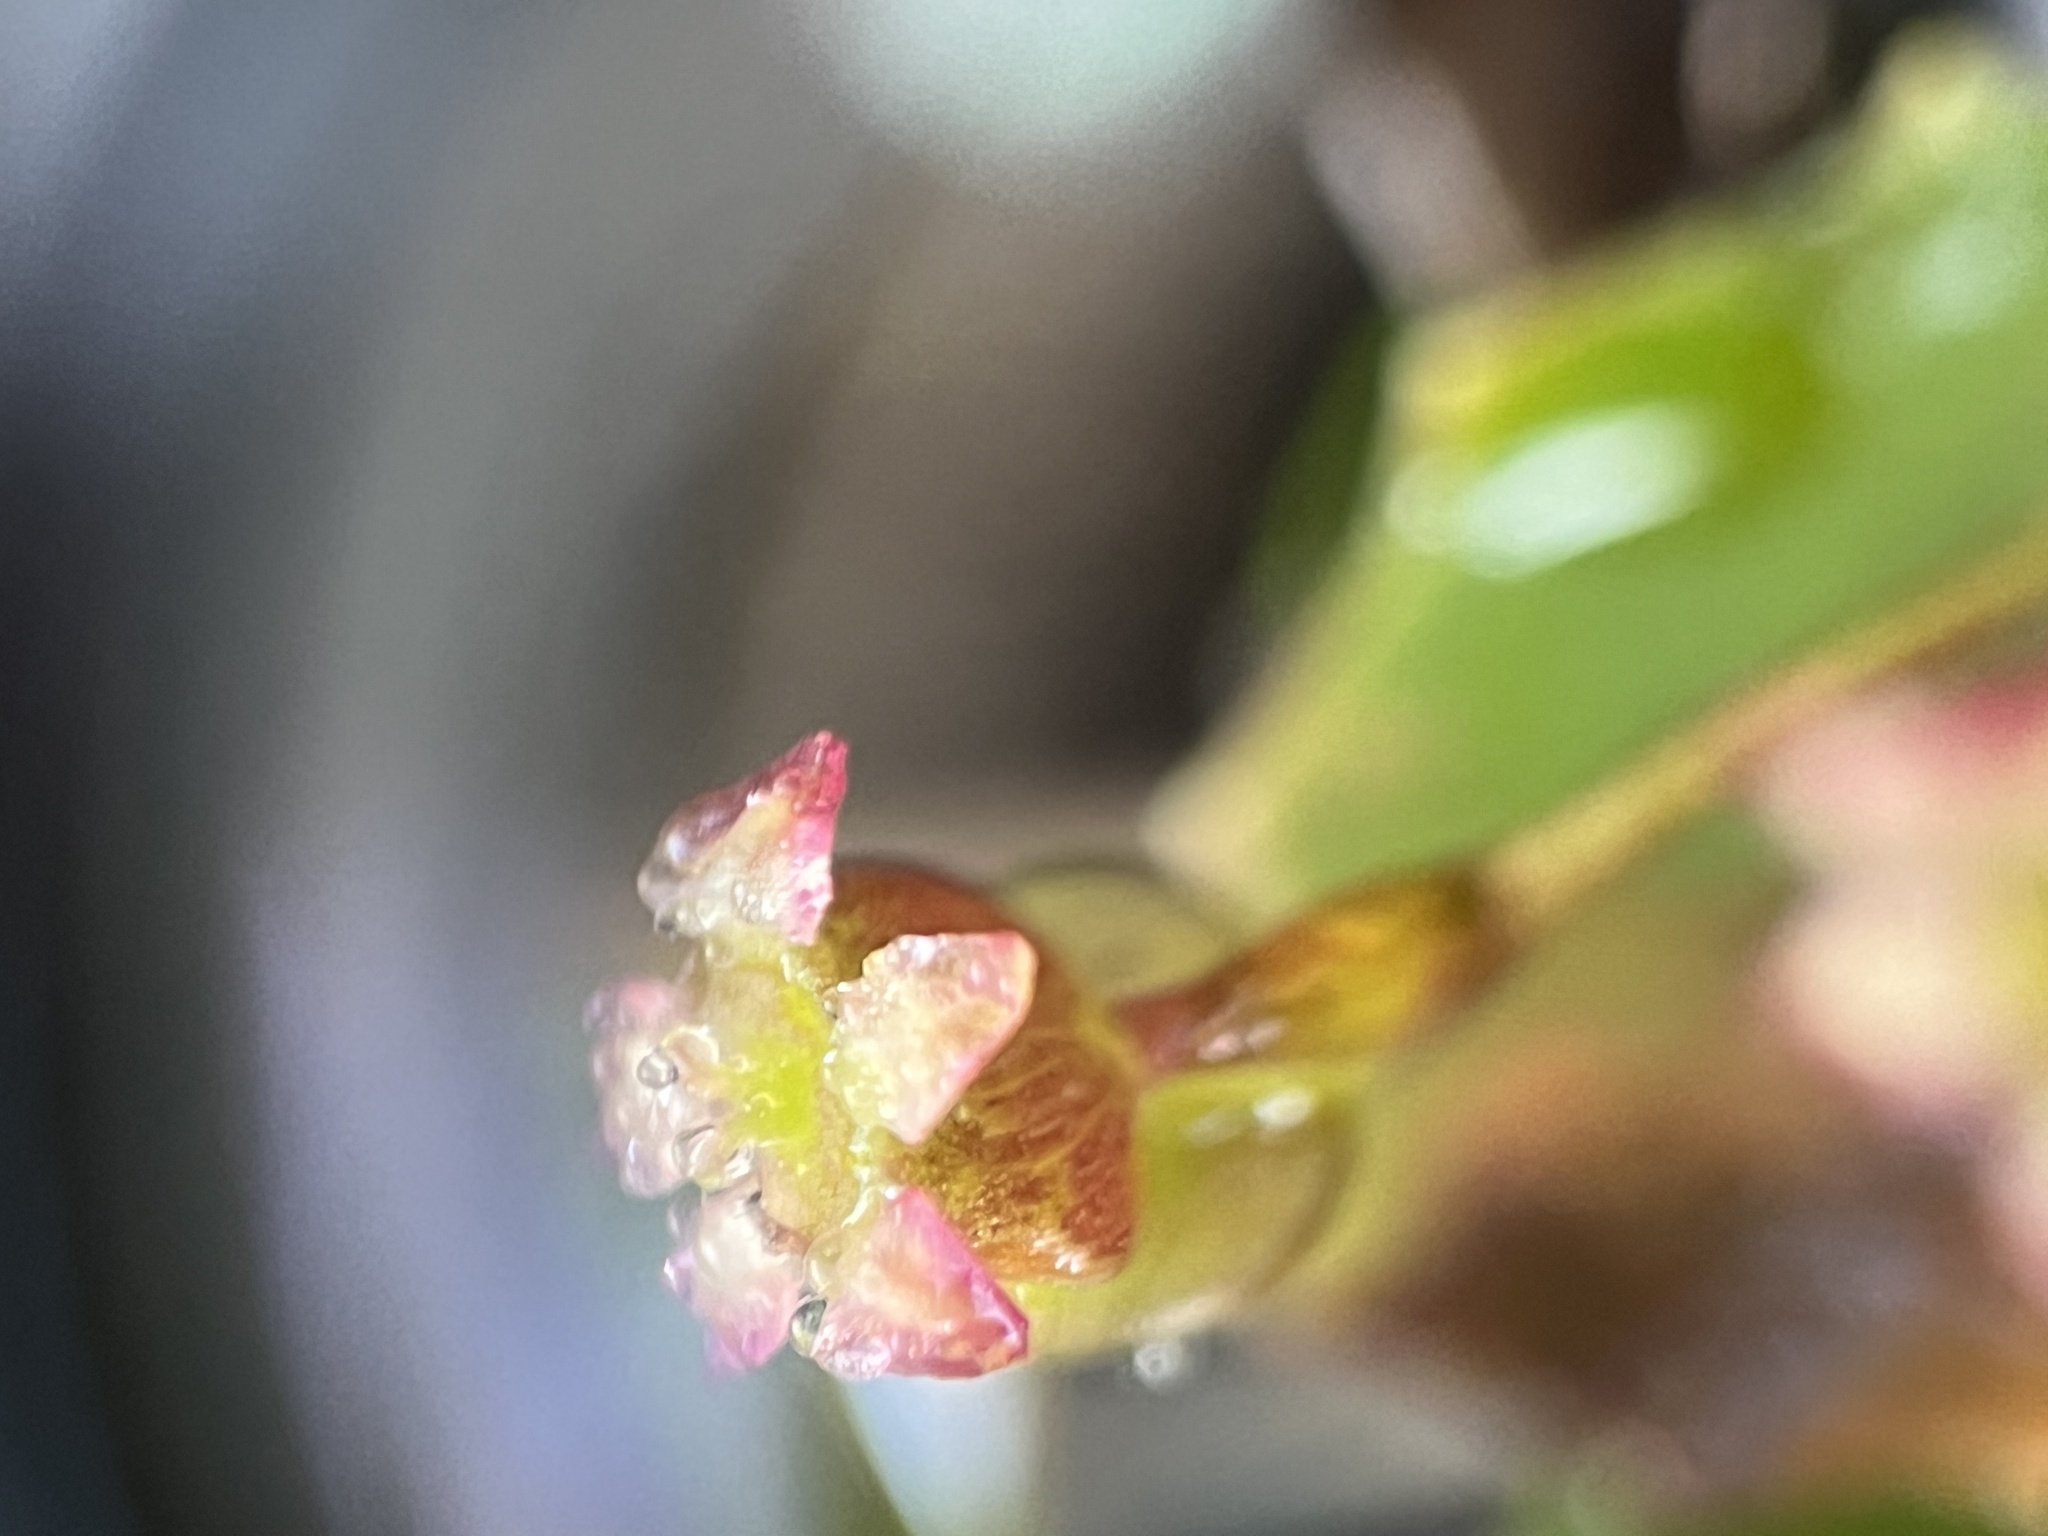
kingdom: Plantae
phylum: Tracheophyta
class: Magnoliopsida
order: Apiales
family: Apiaceae
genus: Centella
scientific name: Centella erecta
